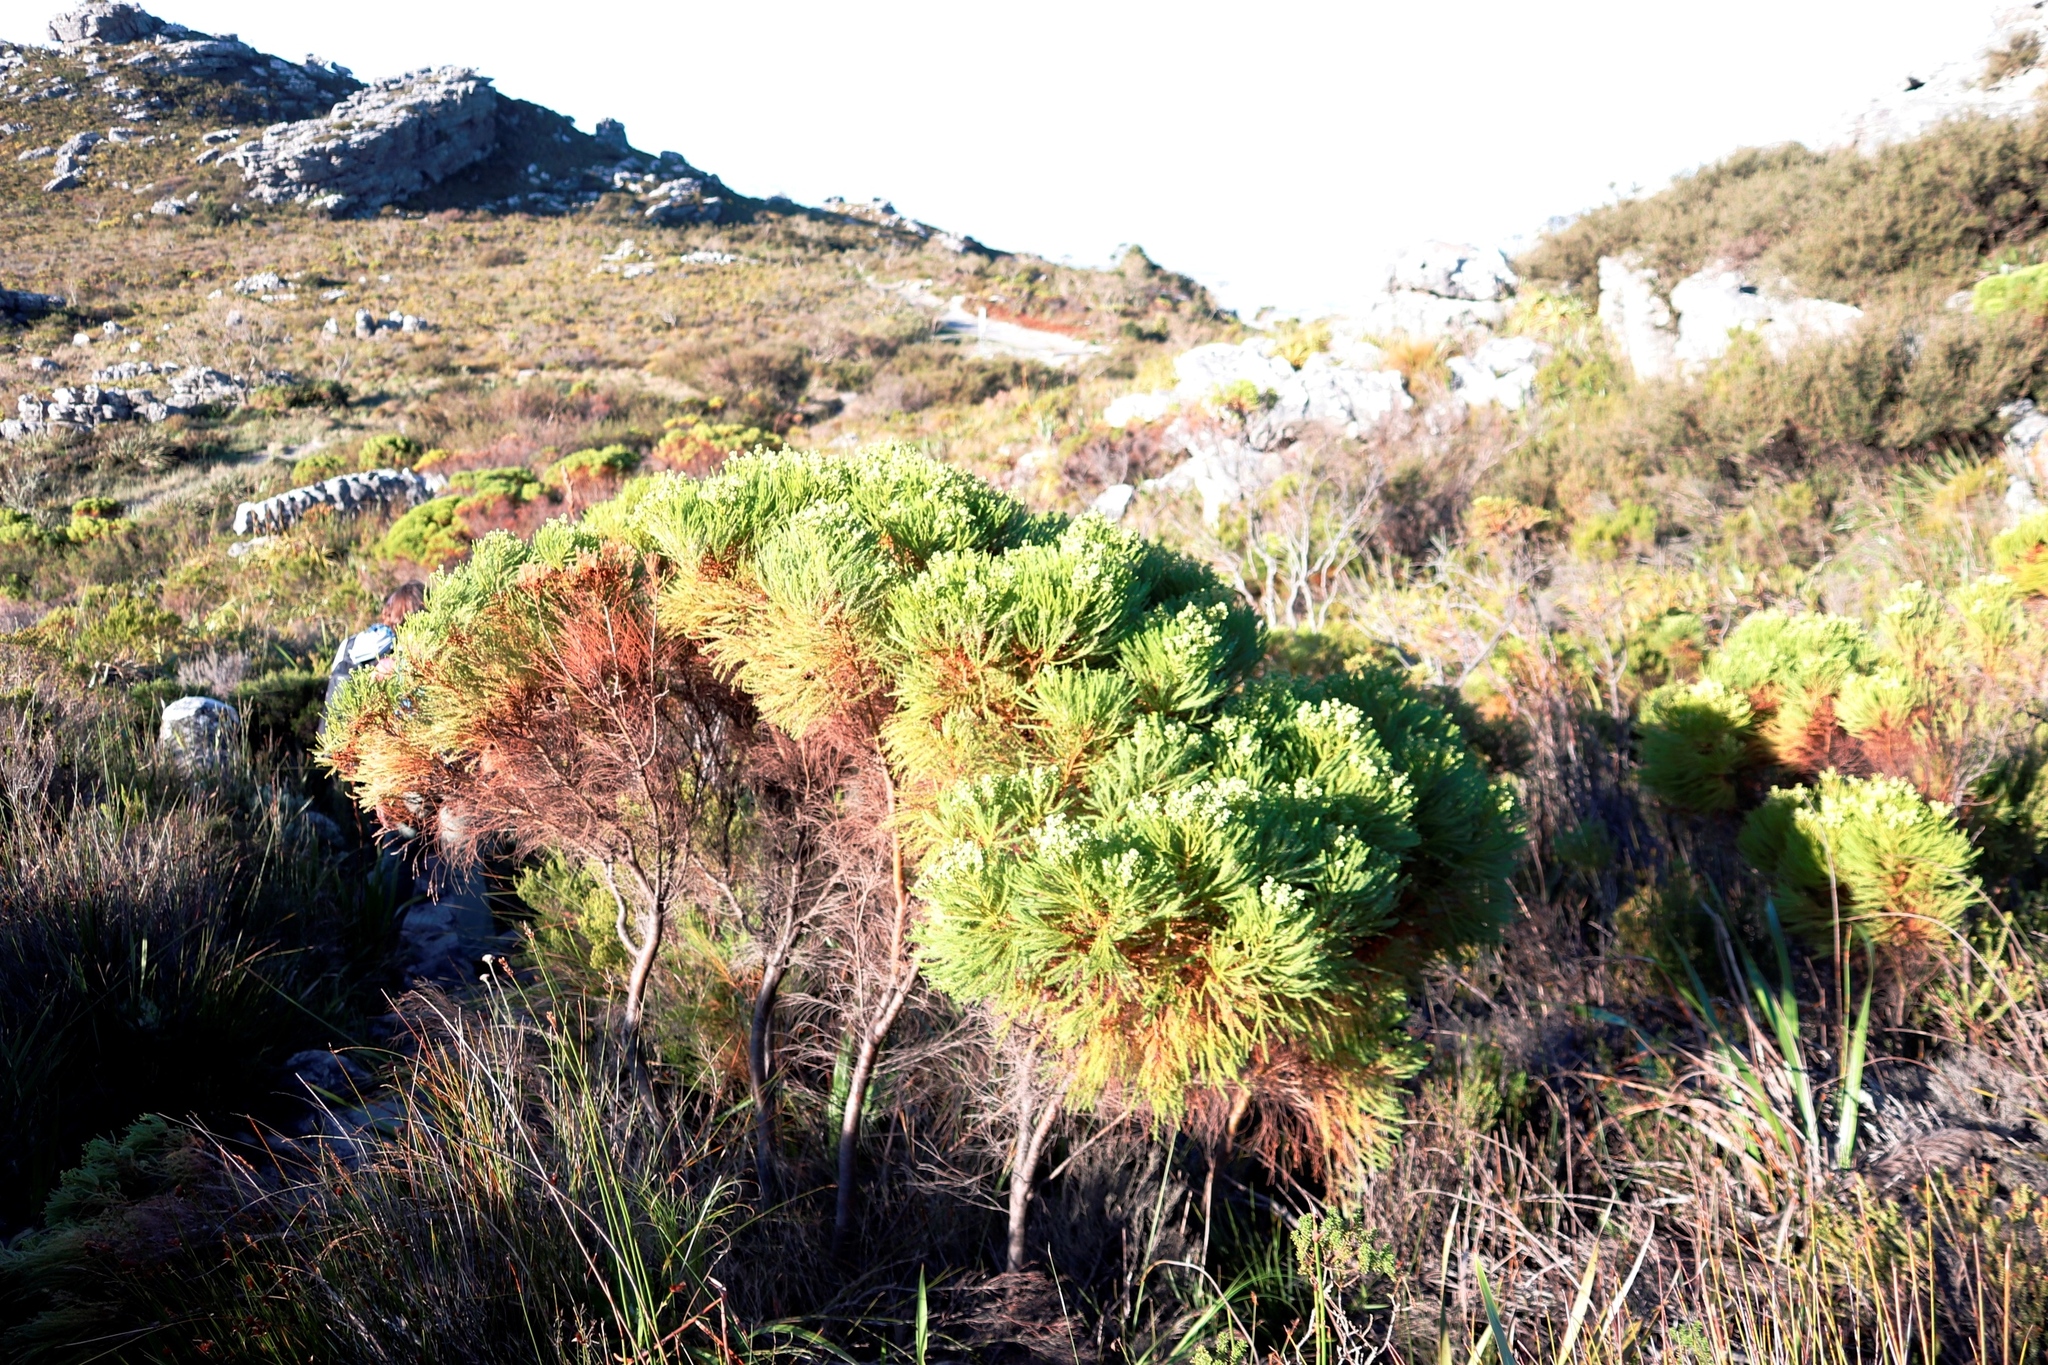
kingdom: Plantae
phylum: Tracheophyta
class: Magnoliopsida
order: Bruniales
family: Bruniaceae
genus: Berzelia
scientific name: Berzelia lanuginosa
